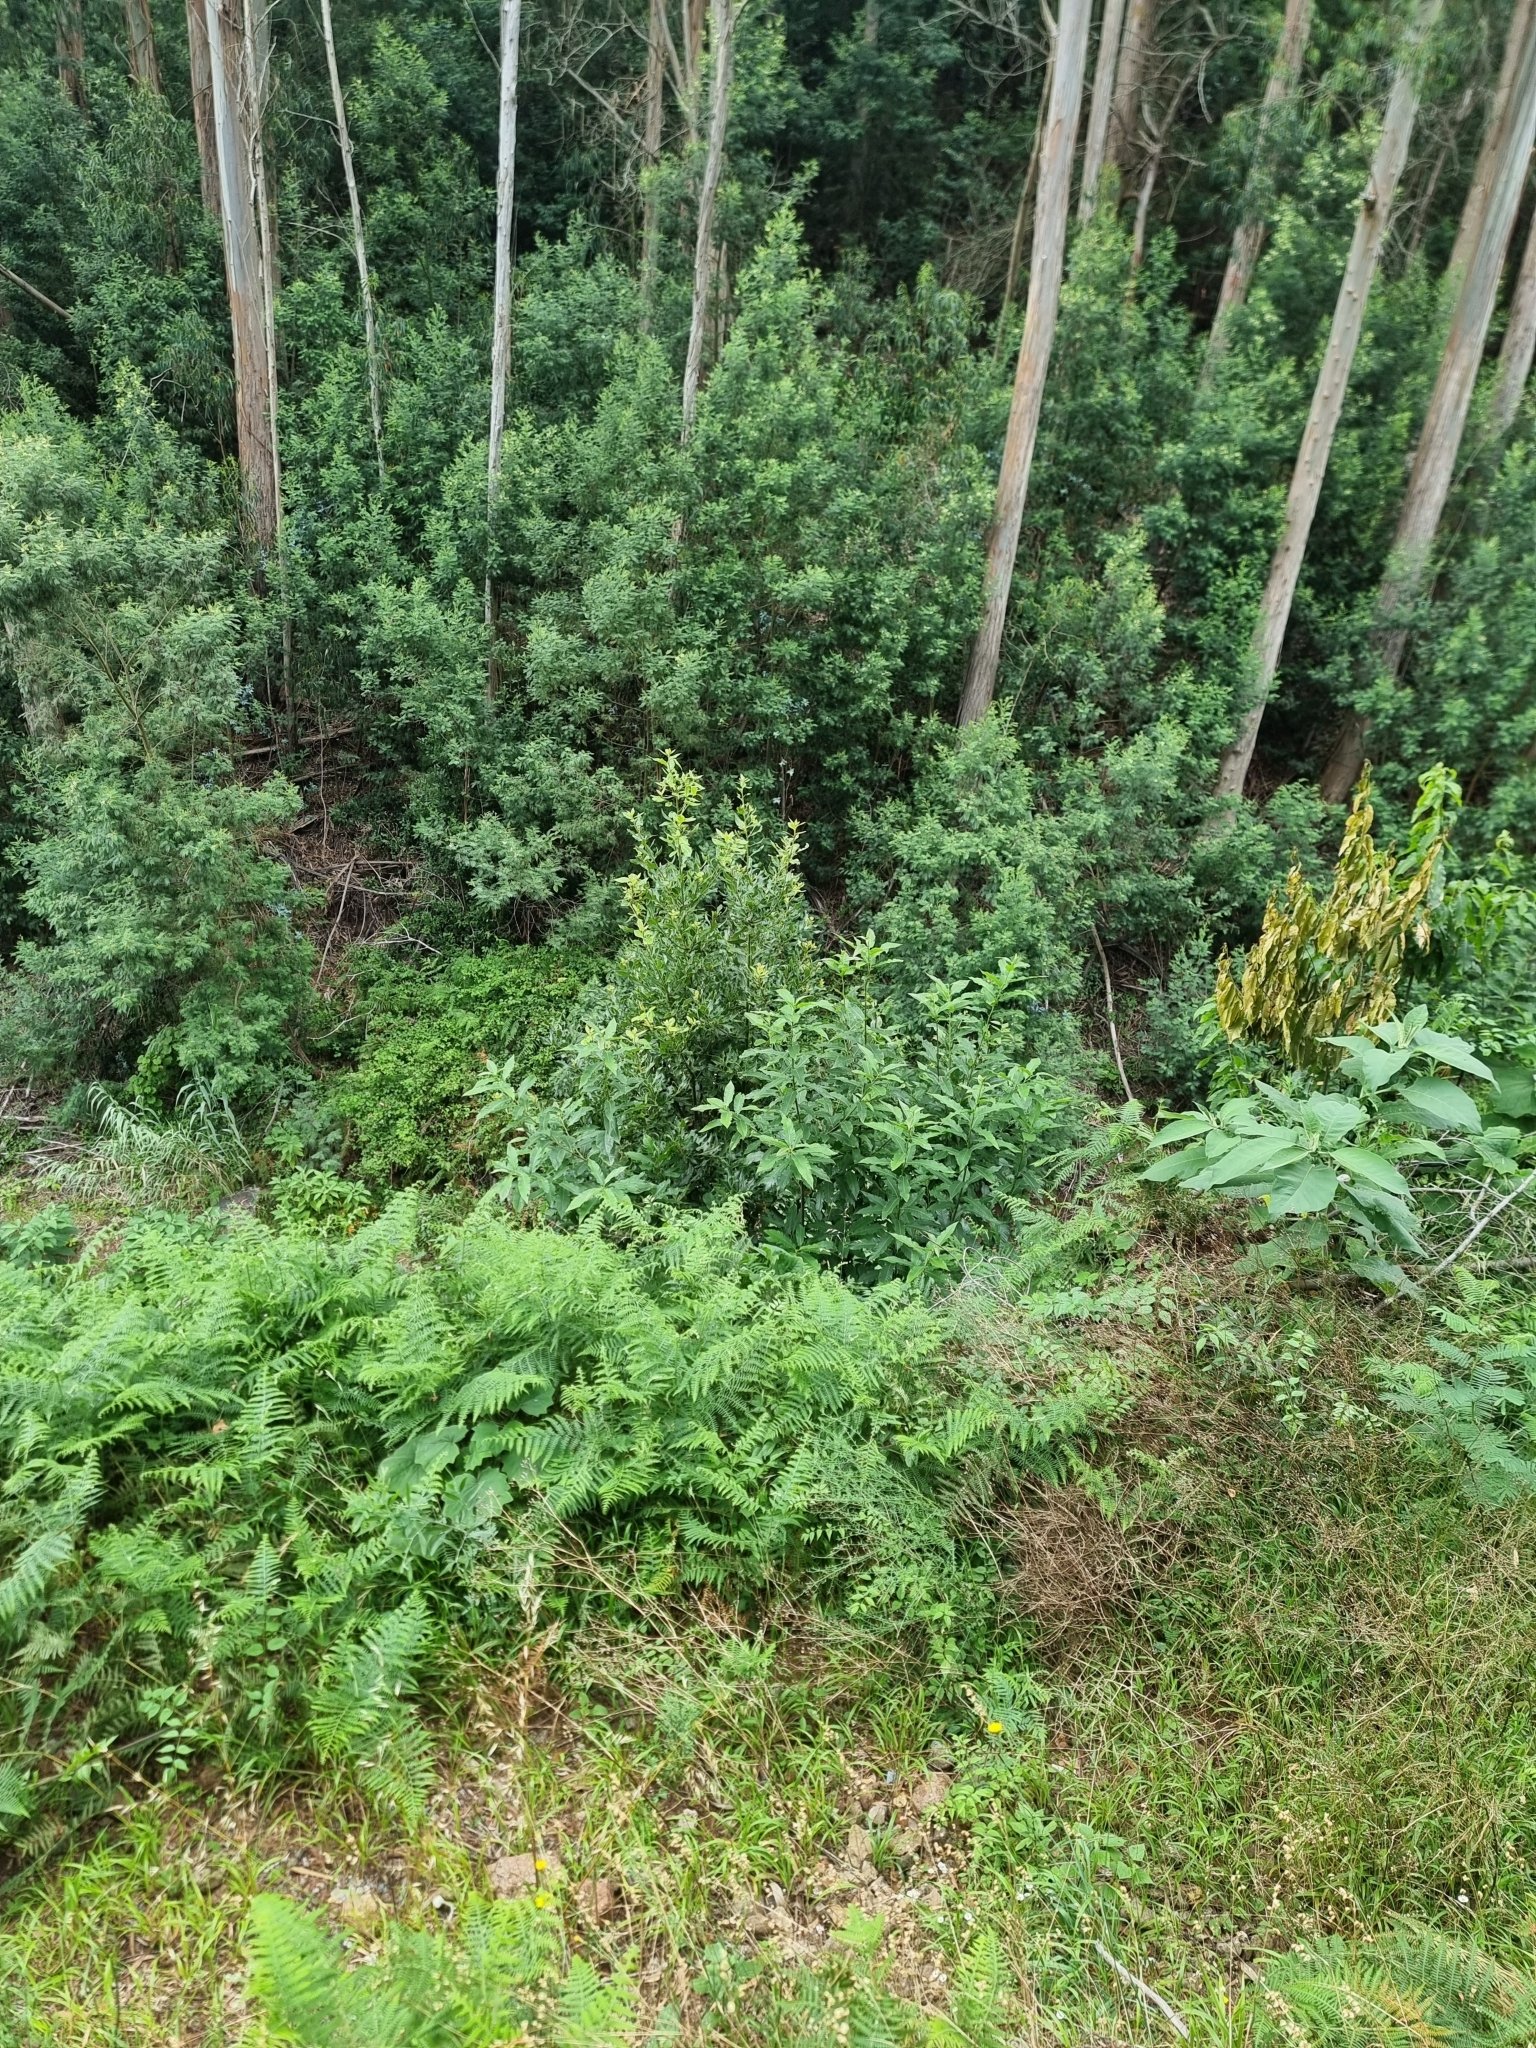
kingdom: Plantae
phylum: Tracheophyta
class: Magnoliopsida
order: Laurales
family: Lauraceae
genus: Laurus
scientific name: Laurus novocanariensis
